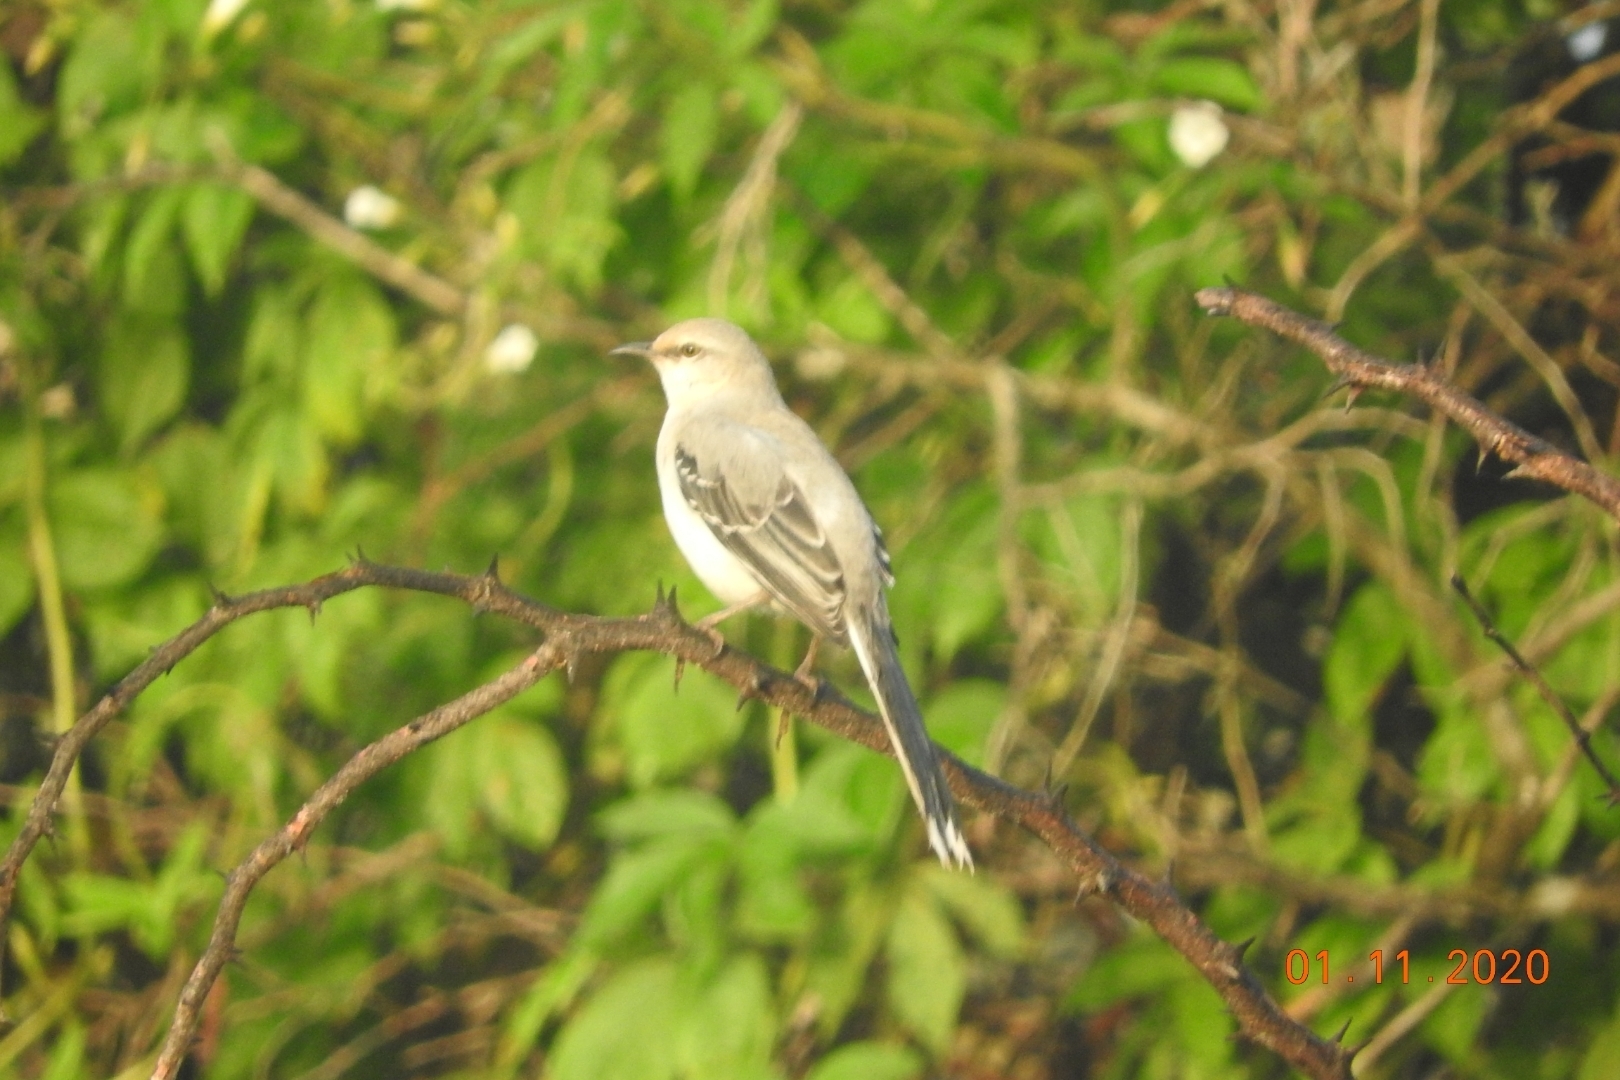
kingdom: Animalia
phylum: Chordata
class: Aves
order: Passeriformes
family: Mimidae
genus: Mimus
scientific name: Mimus gilvus
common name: Tropical mockingbird
